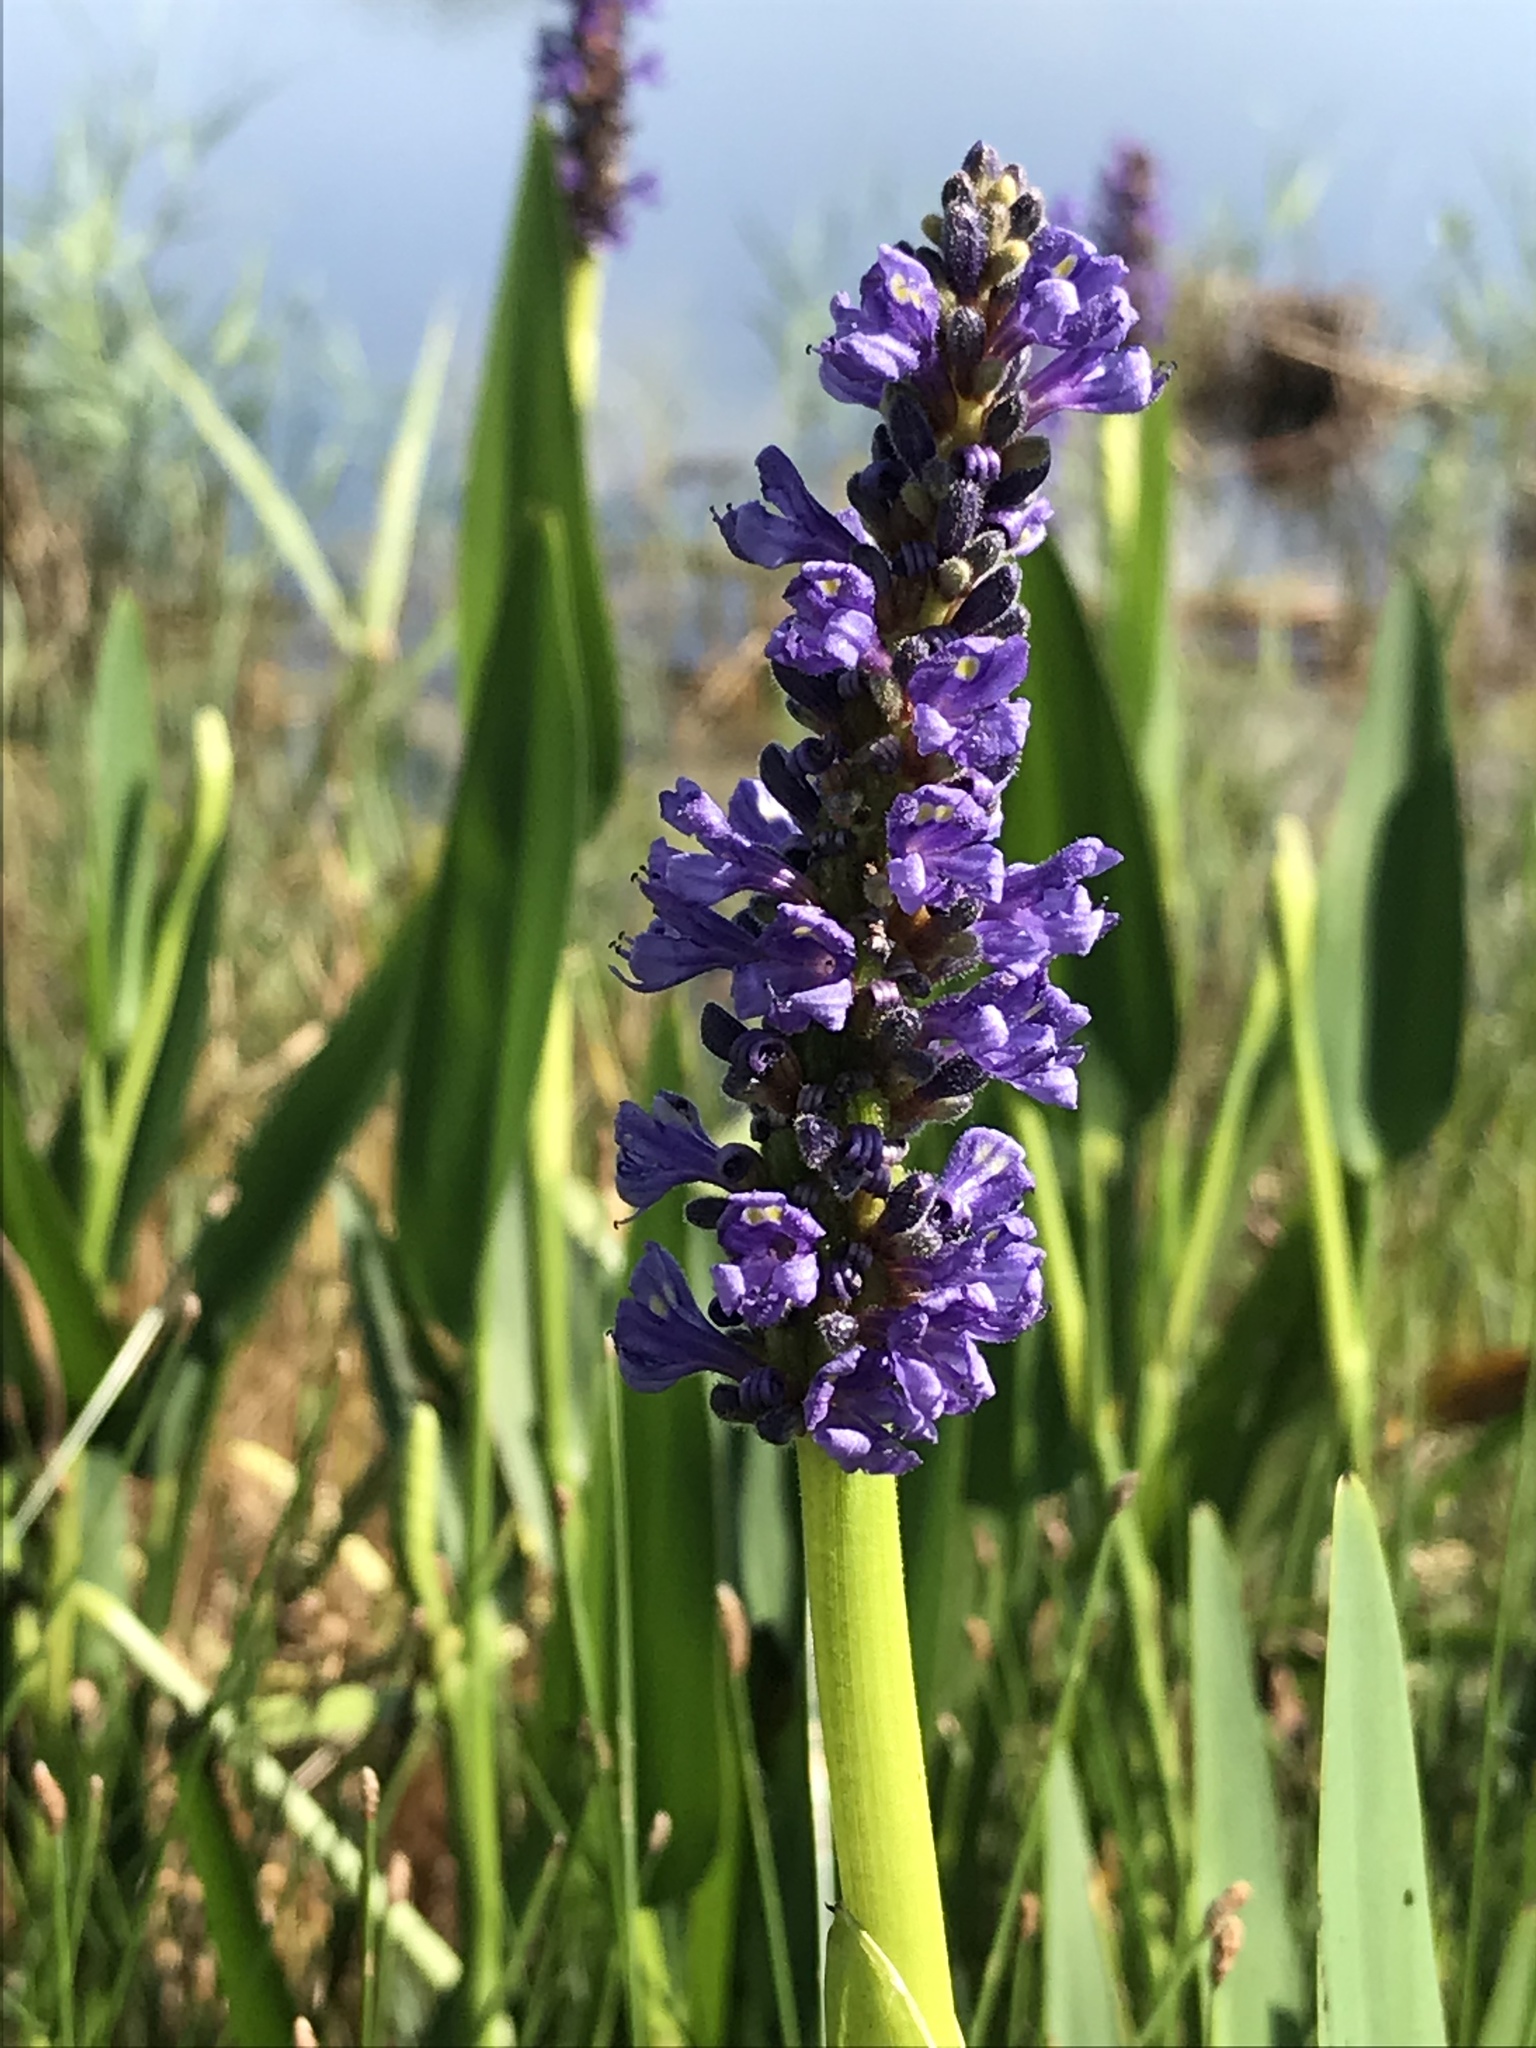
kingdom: Plantae
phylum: Tracheophyta
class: Liliopsida
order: Commelinales
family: Pontederiaceae
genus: Pontederia
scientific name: Pontederia cordata
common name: Pickerelweed
